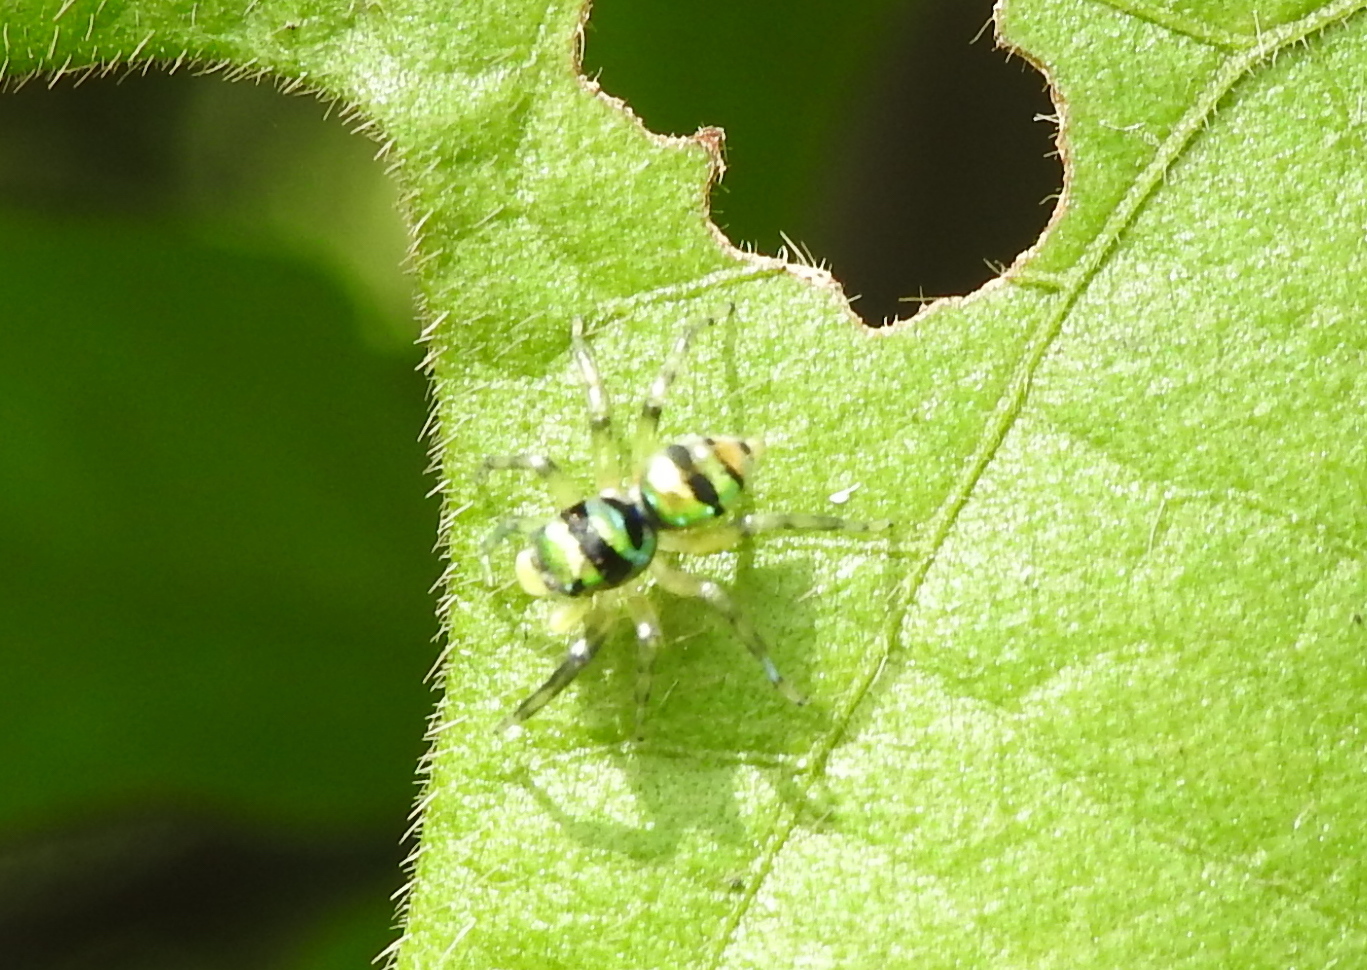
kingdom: Animalia
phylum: Arthropoda
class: Arachnida
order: Araneae
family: Salticidae
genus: Phintella
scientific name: Phintella vittata
